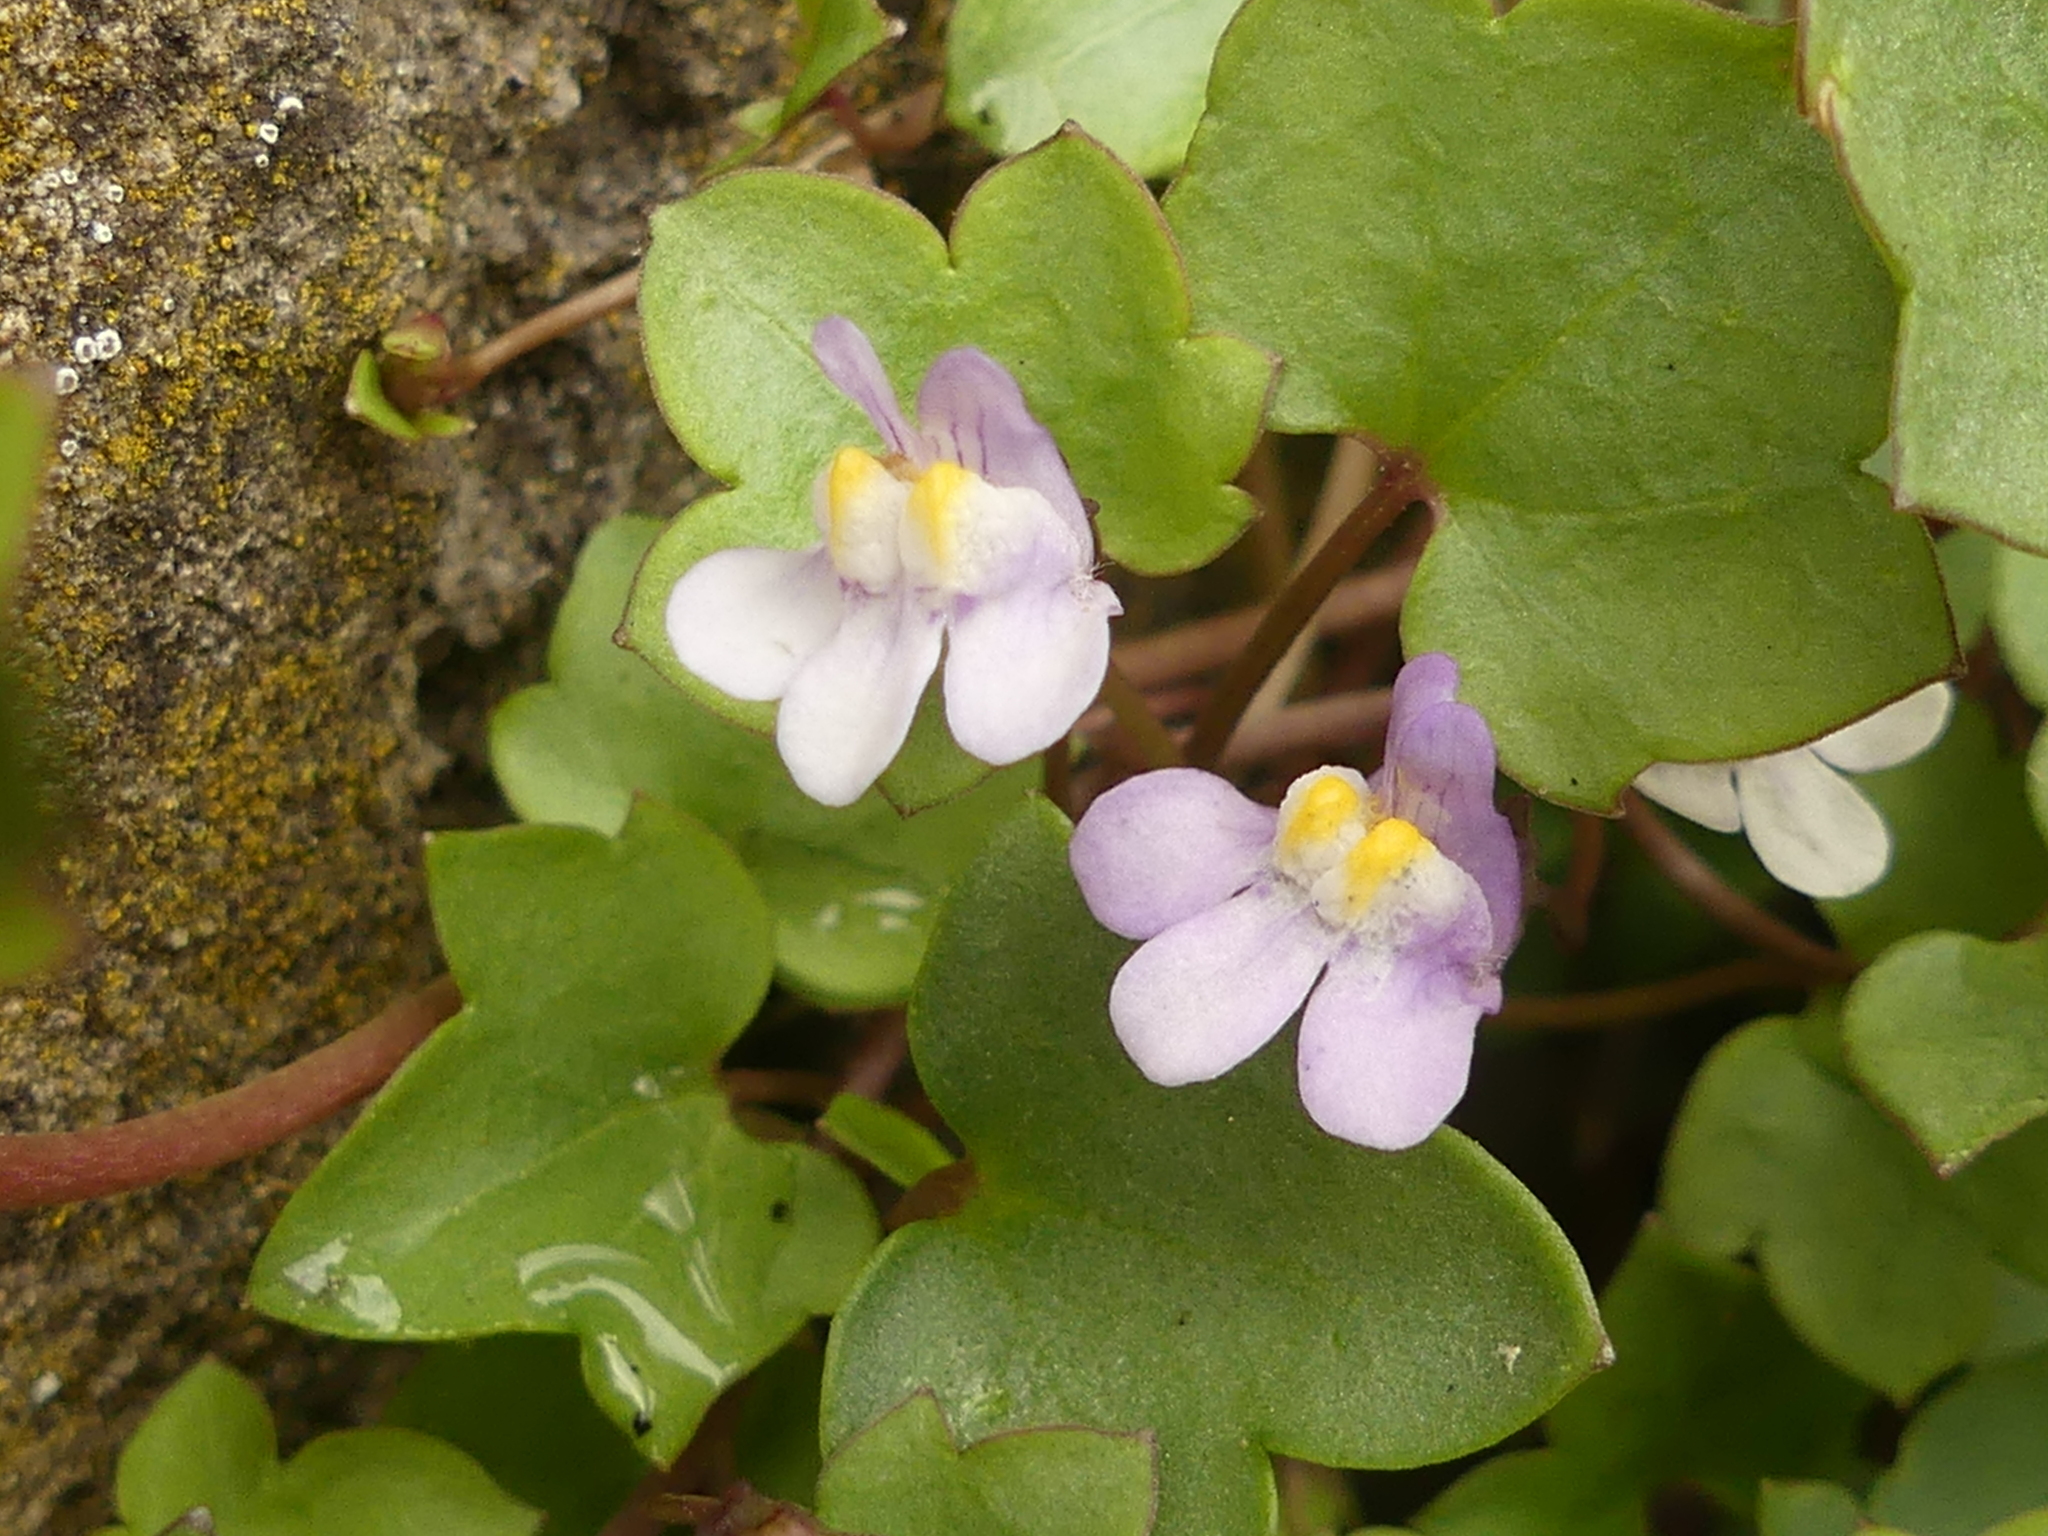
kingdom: Plantae
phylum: Tracheophyta
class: Magnoliopsida
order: Lamiales
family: Plantaginaceae
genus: Cymbalaria
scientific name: Cymbalaria muralis
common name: Ivy-leaved toadflax
